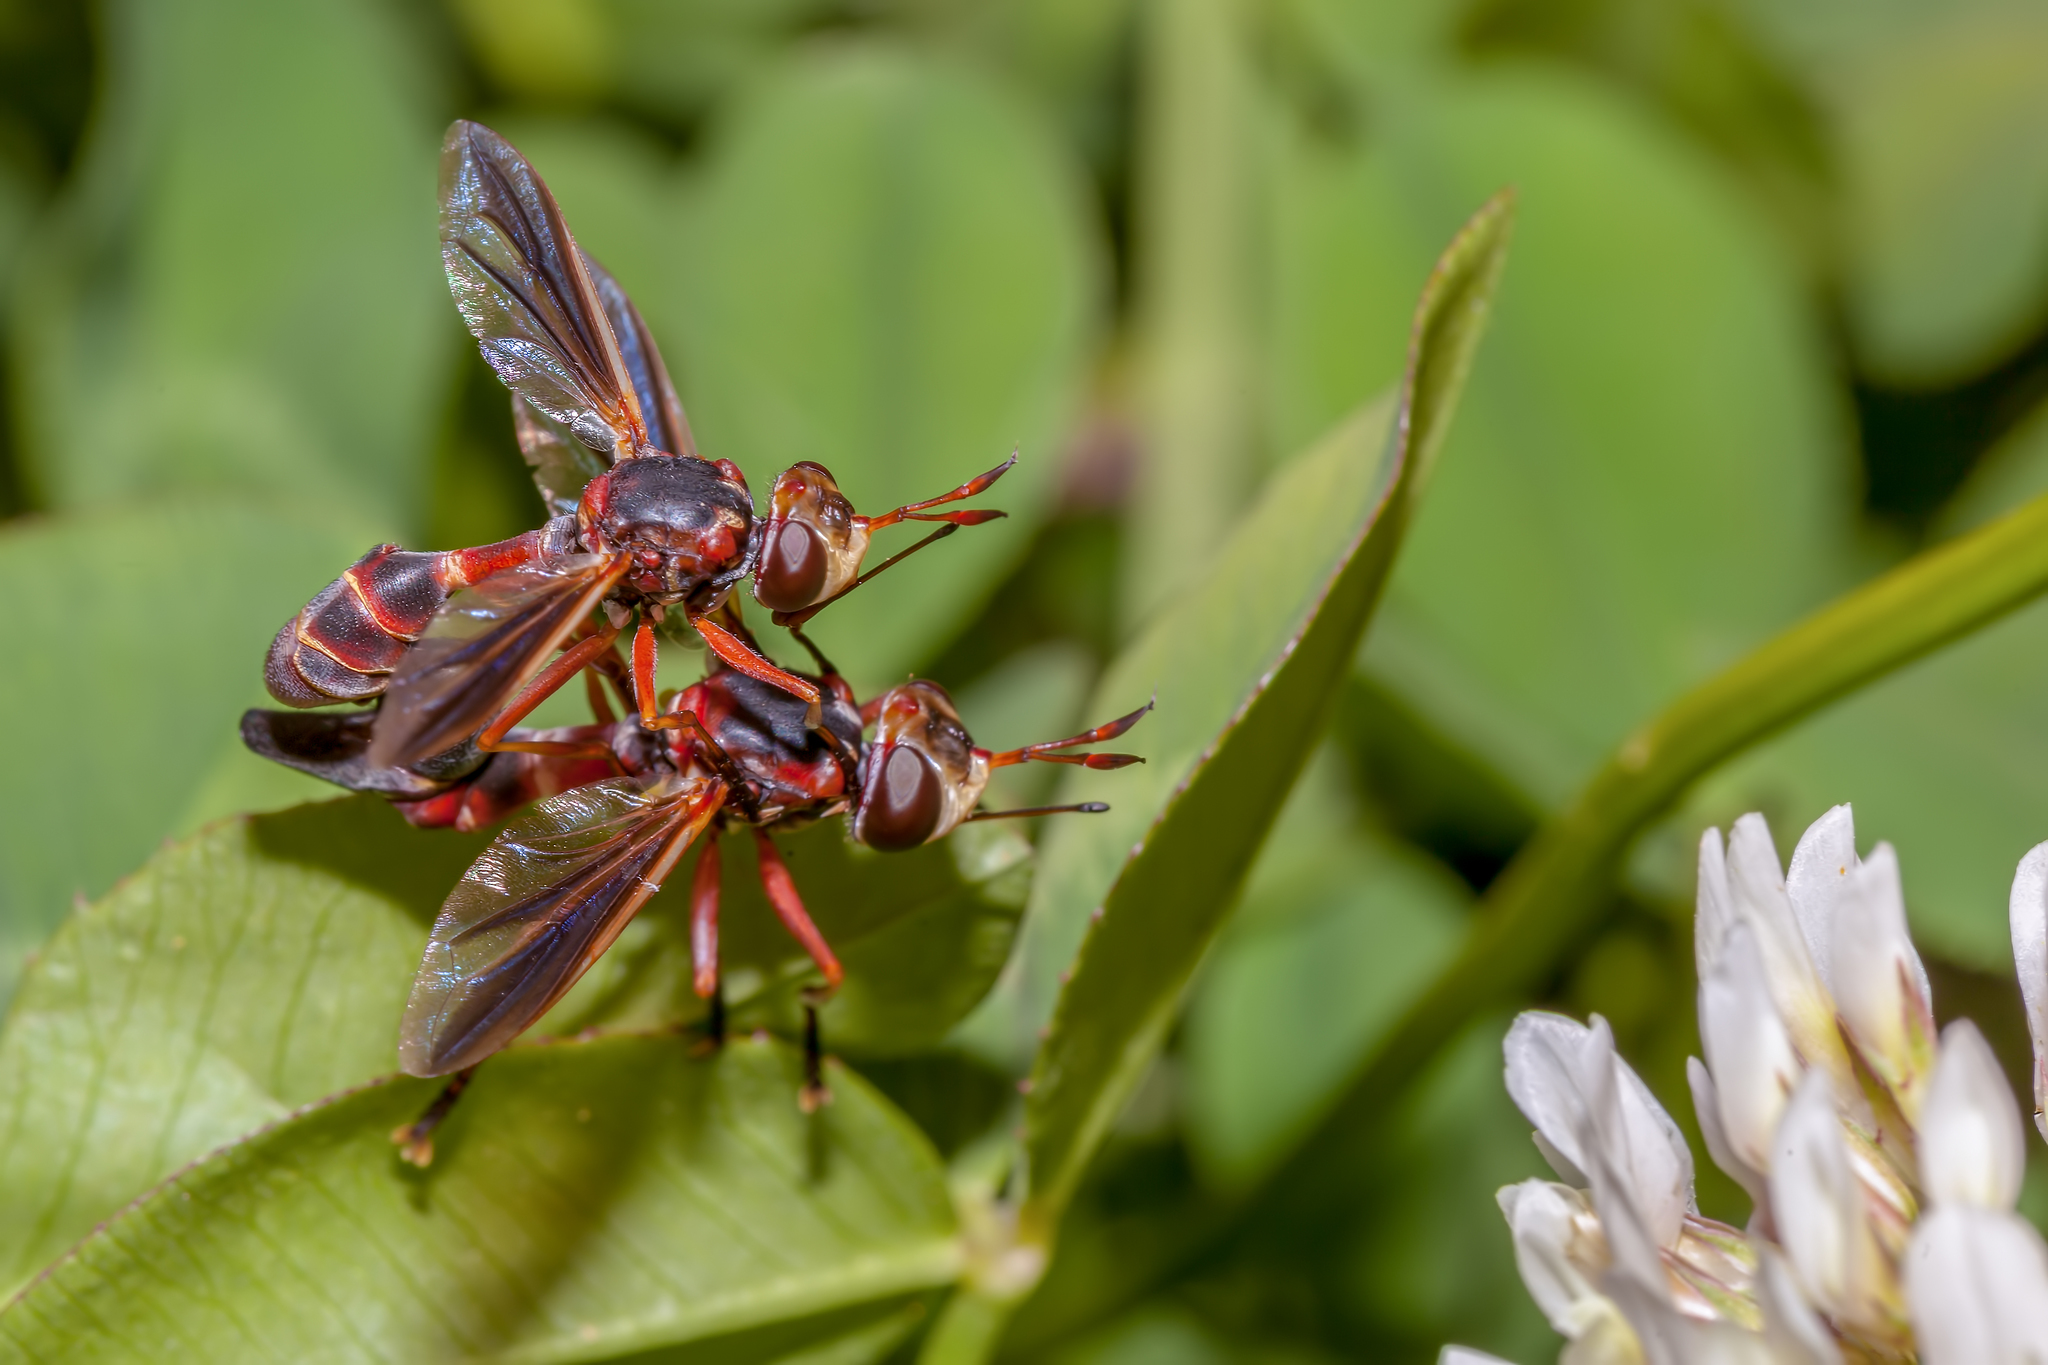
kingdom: Animalia
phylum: Arthropoda
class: Insecta
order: Diptera
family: Conopidae
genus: Physoconops
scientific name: Physoconops excisus
